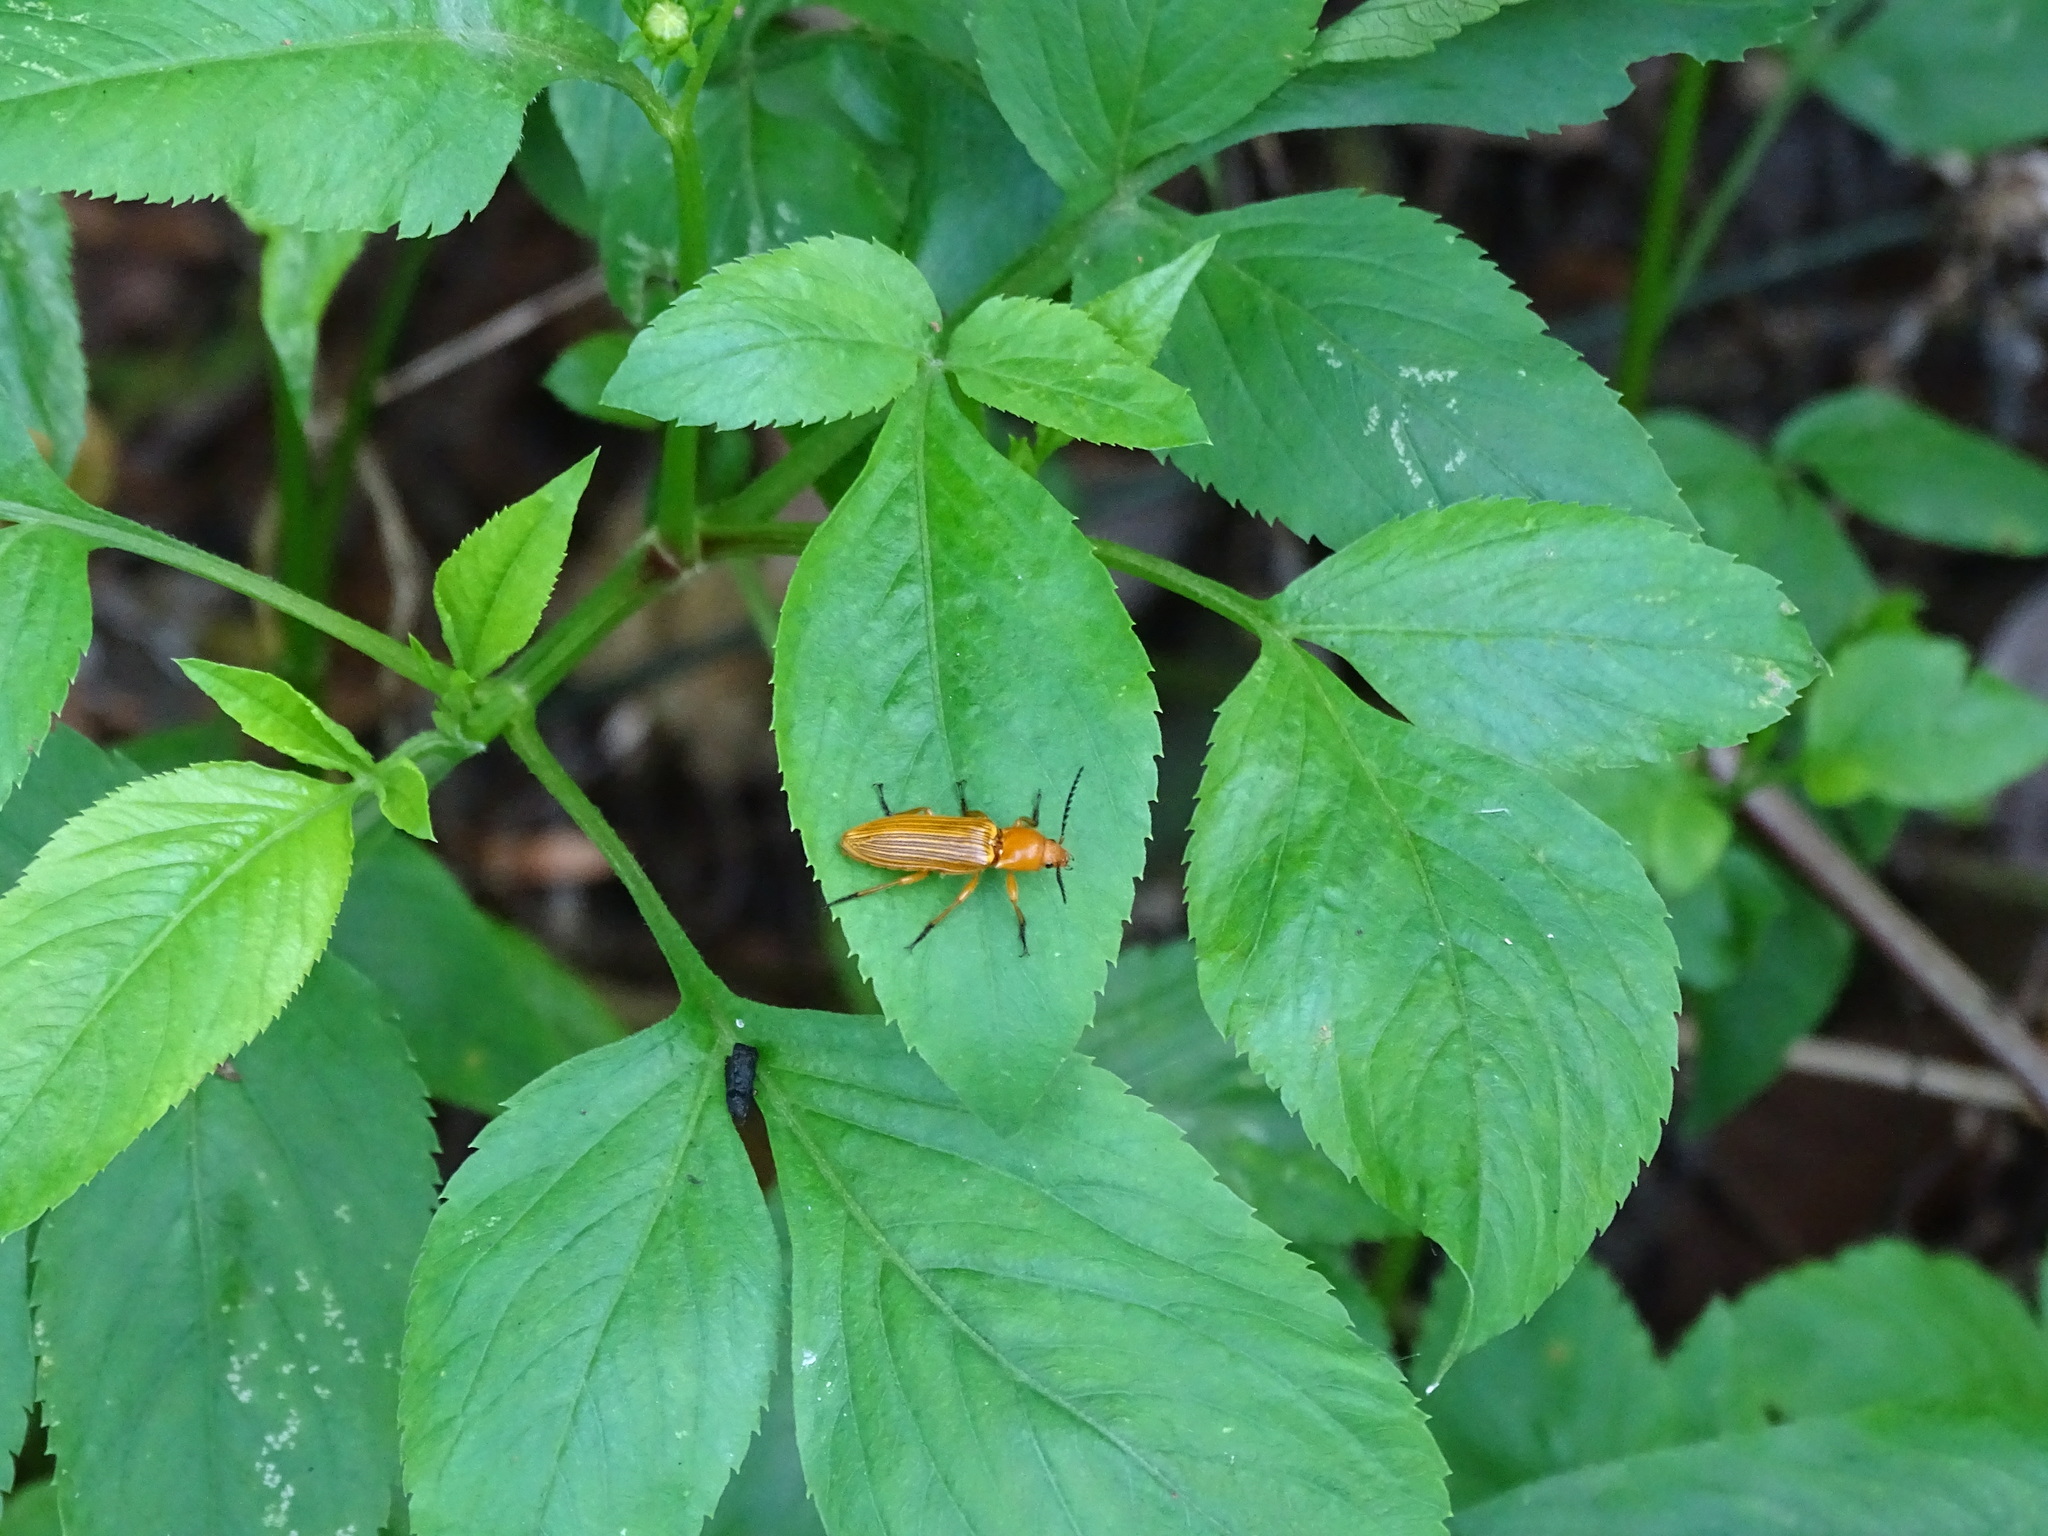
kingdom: Animalia
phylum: Arthropoda
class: Insecta
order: Coleoptera
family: Elateridae
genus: Hemiops
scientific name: Hemiops flava
